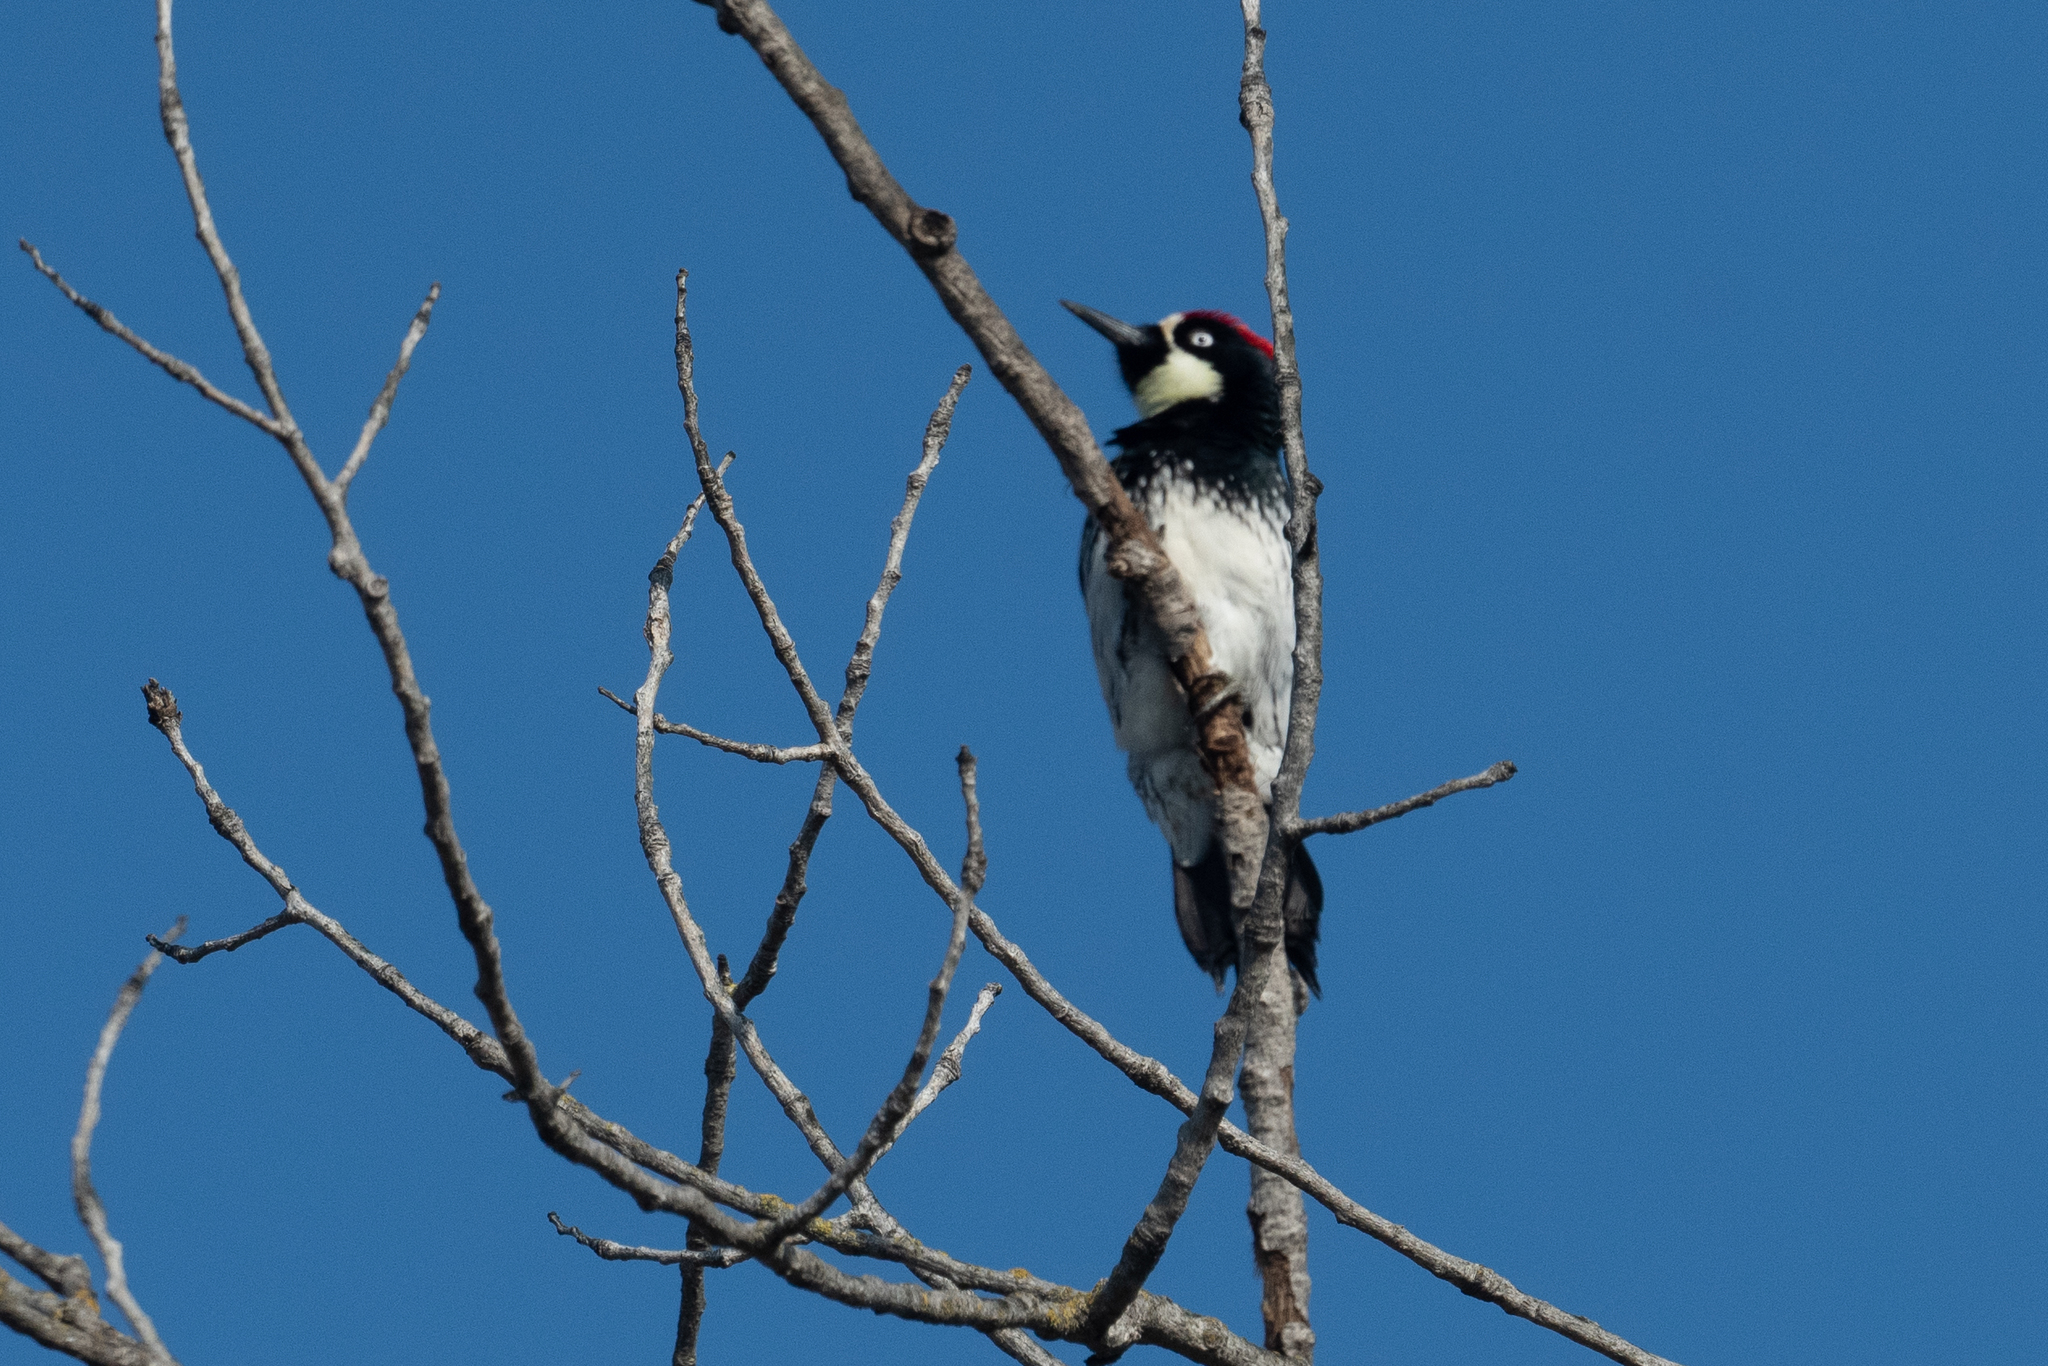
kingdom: Animalia
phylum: Chordata
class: Aves
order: Piciformes
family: Picidae
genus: Melanerpes
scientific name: Melanerpes formicivorus
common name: Acorn woodpecker
